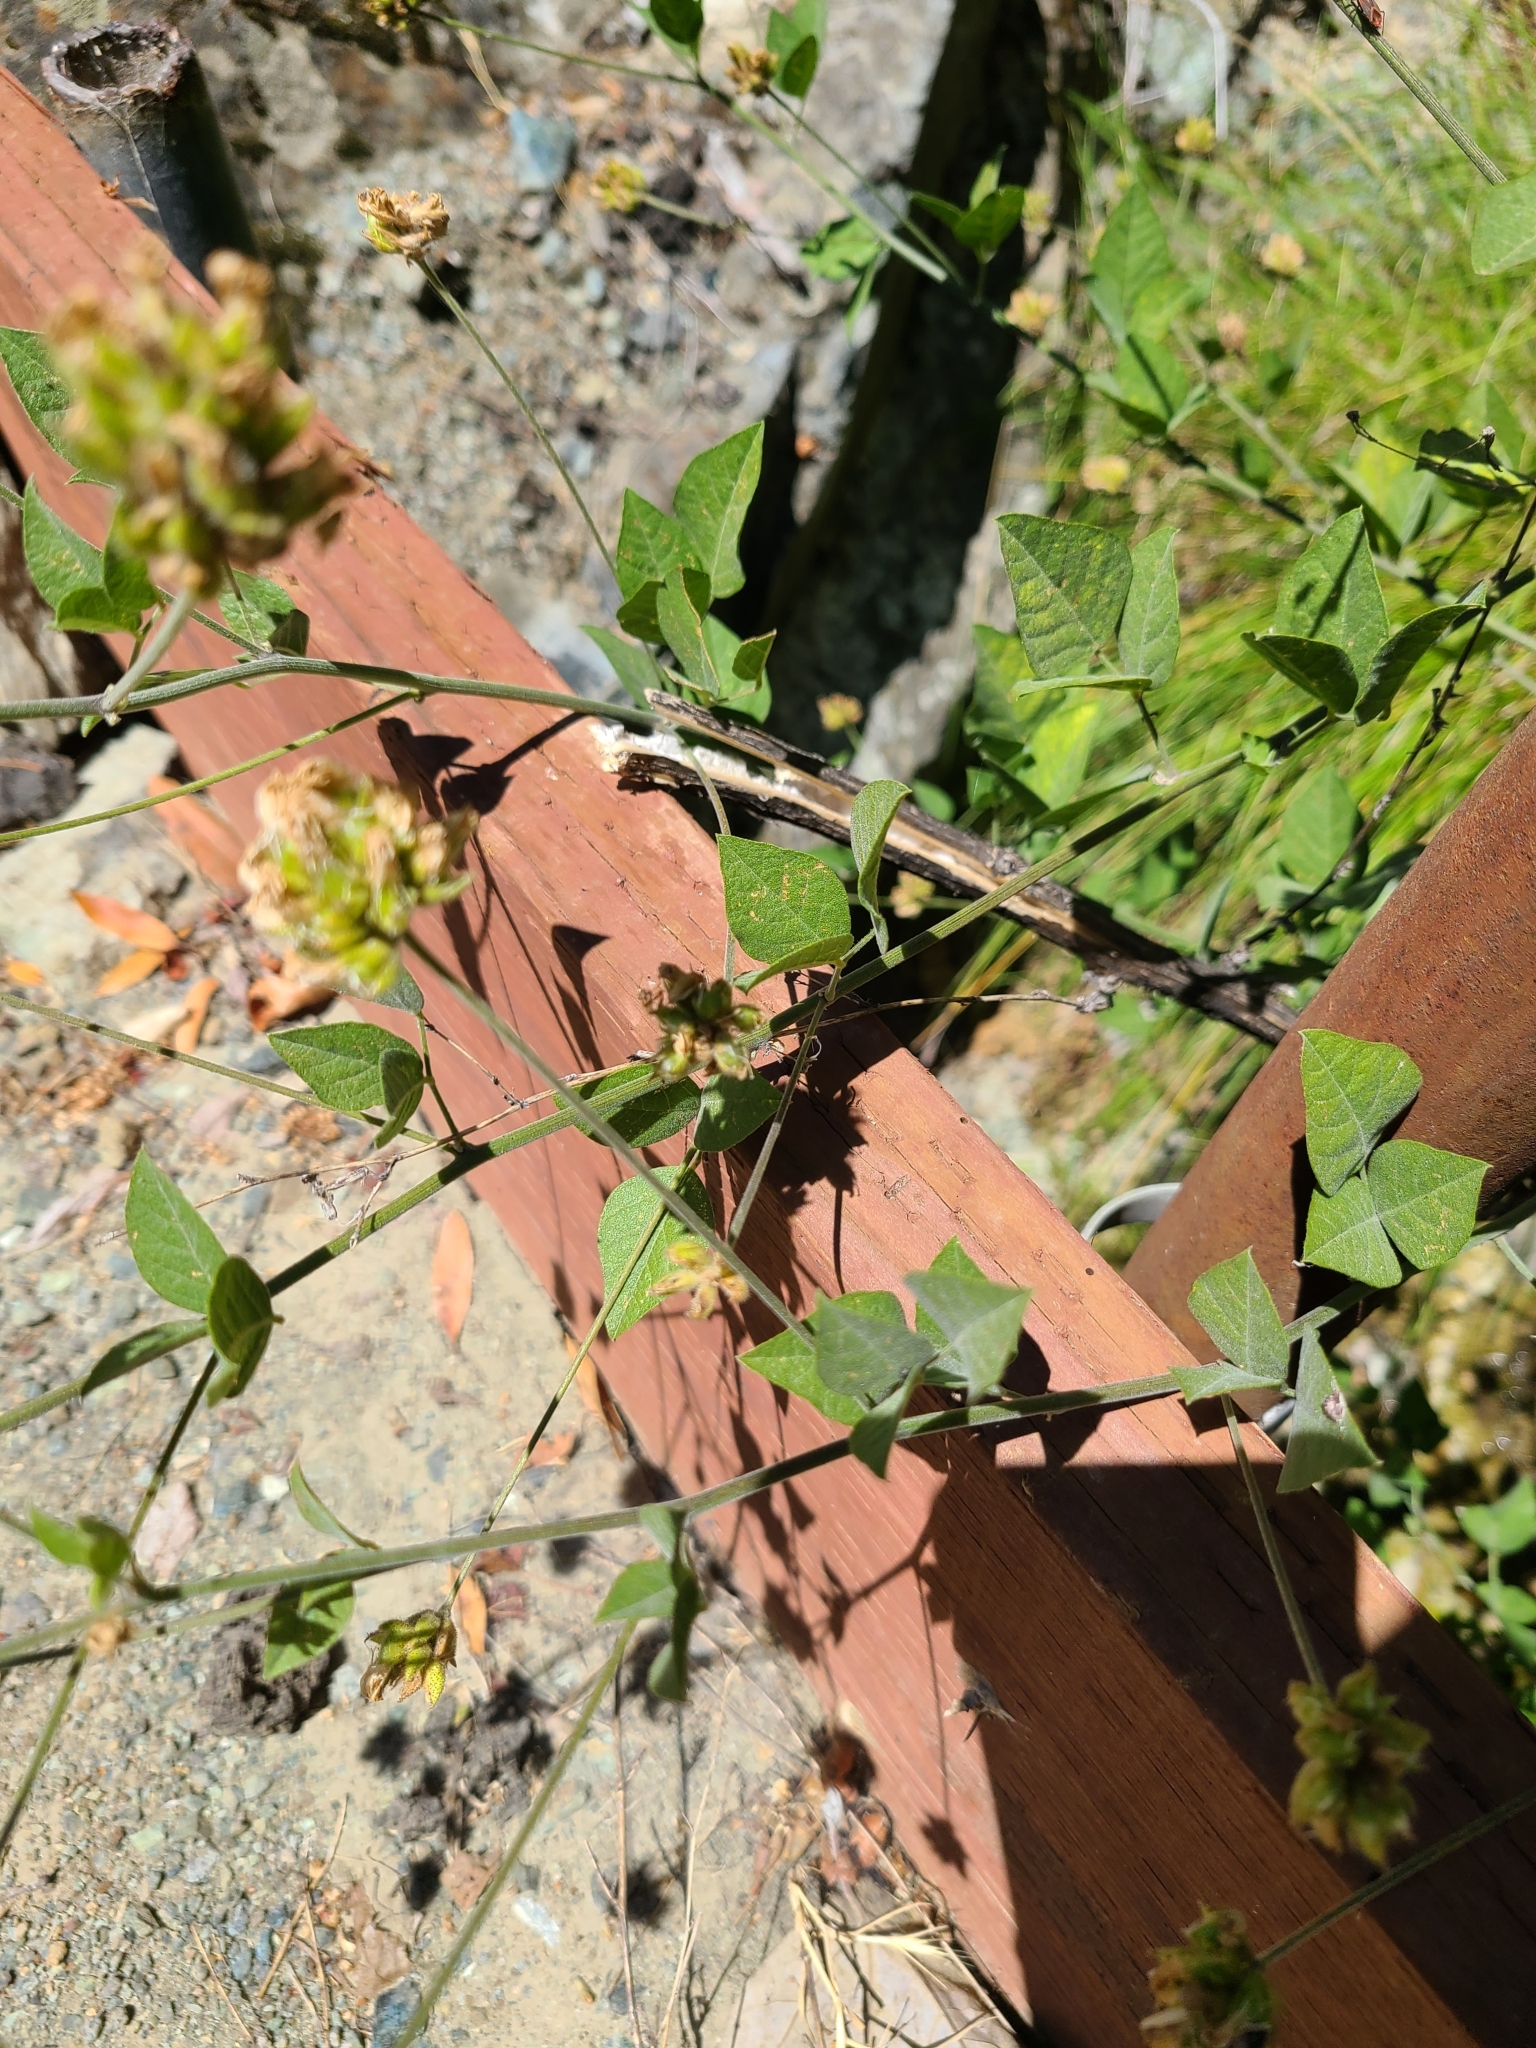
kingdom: Plantae
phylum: Tracheophyta
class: Magnoliopsida
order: Fabales
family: Fabaceae
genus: Hoita
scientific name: Hoita macrostachya
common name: Leatherroot
